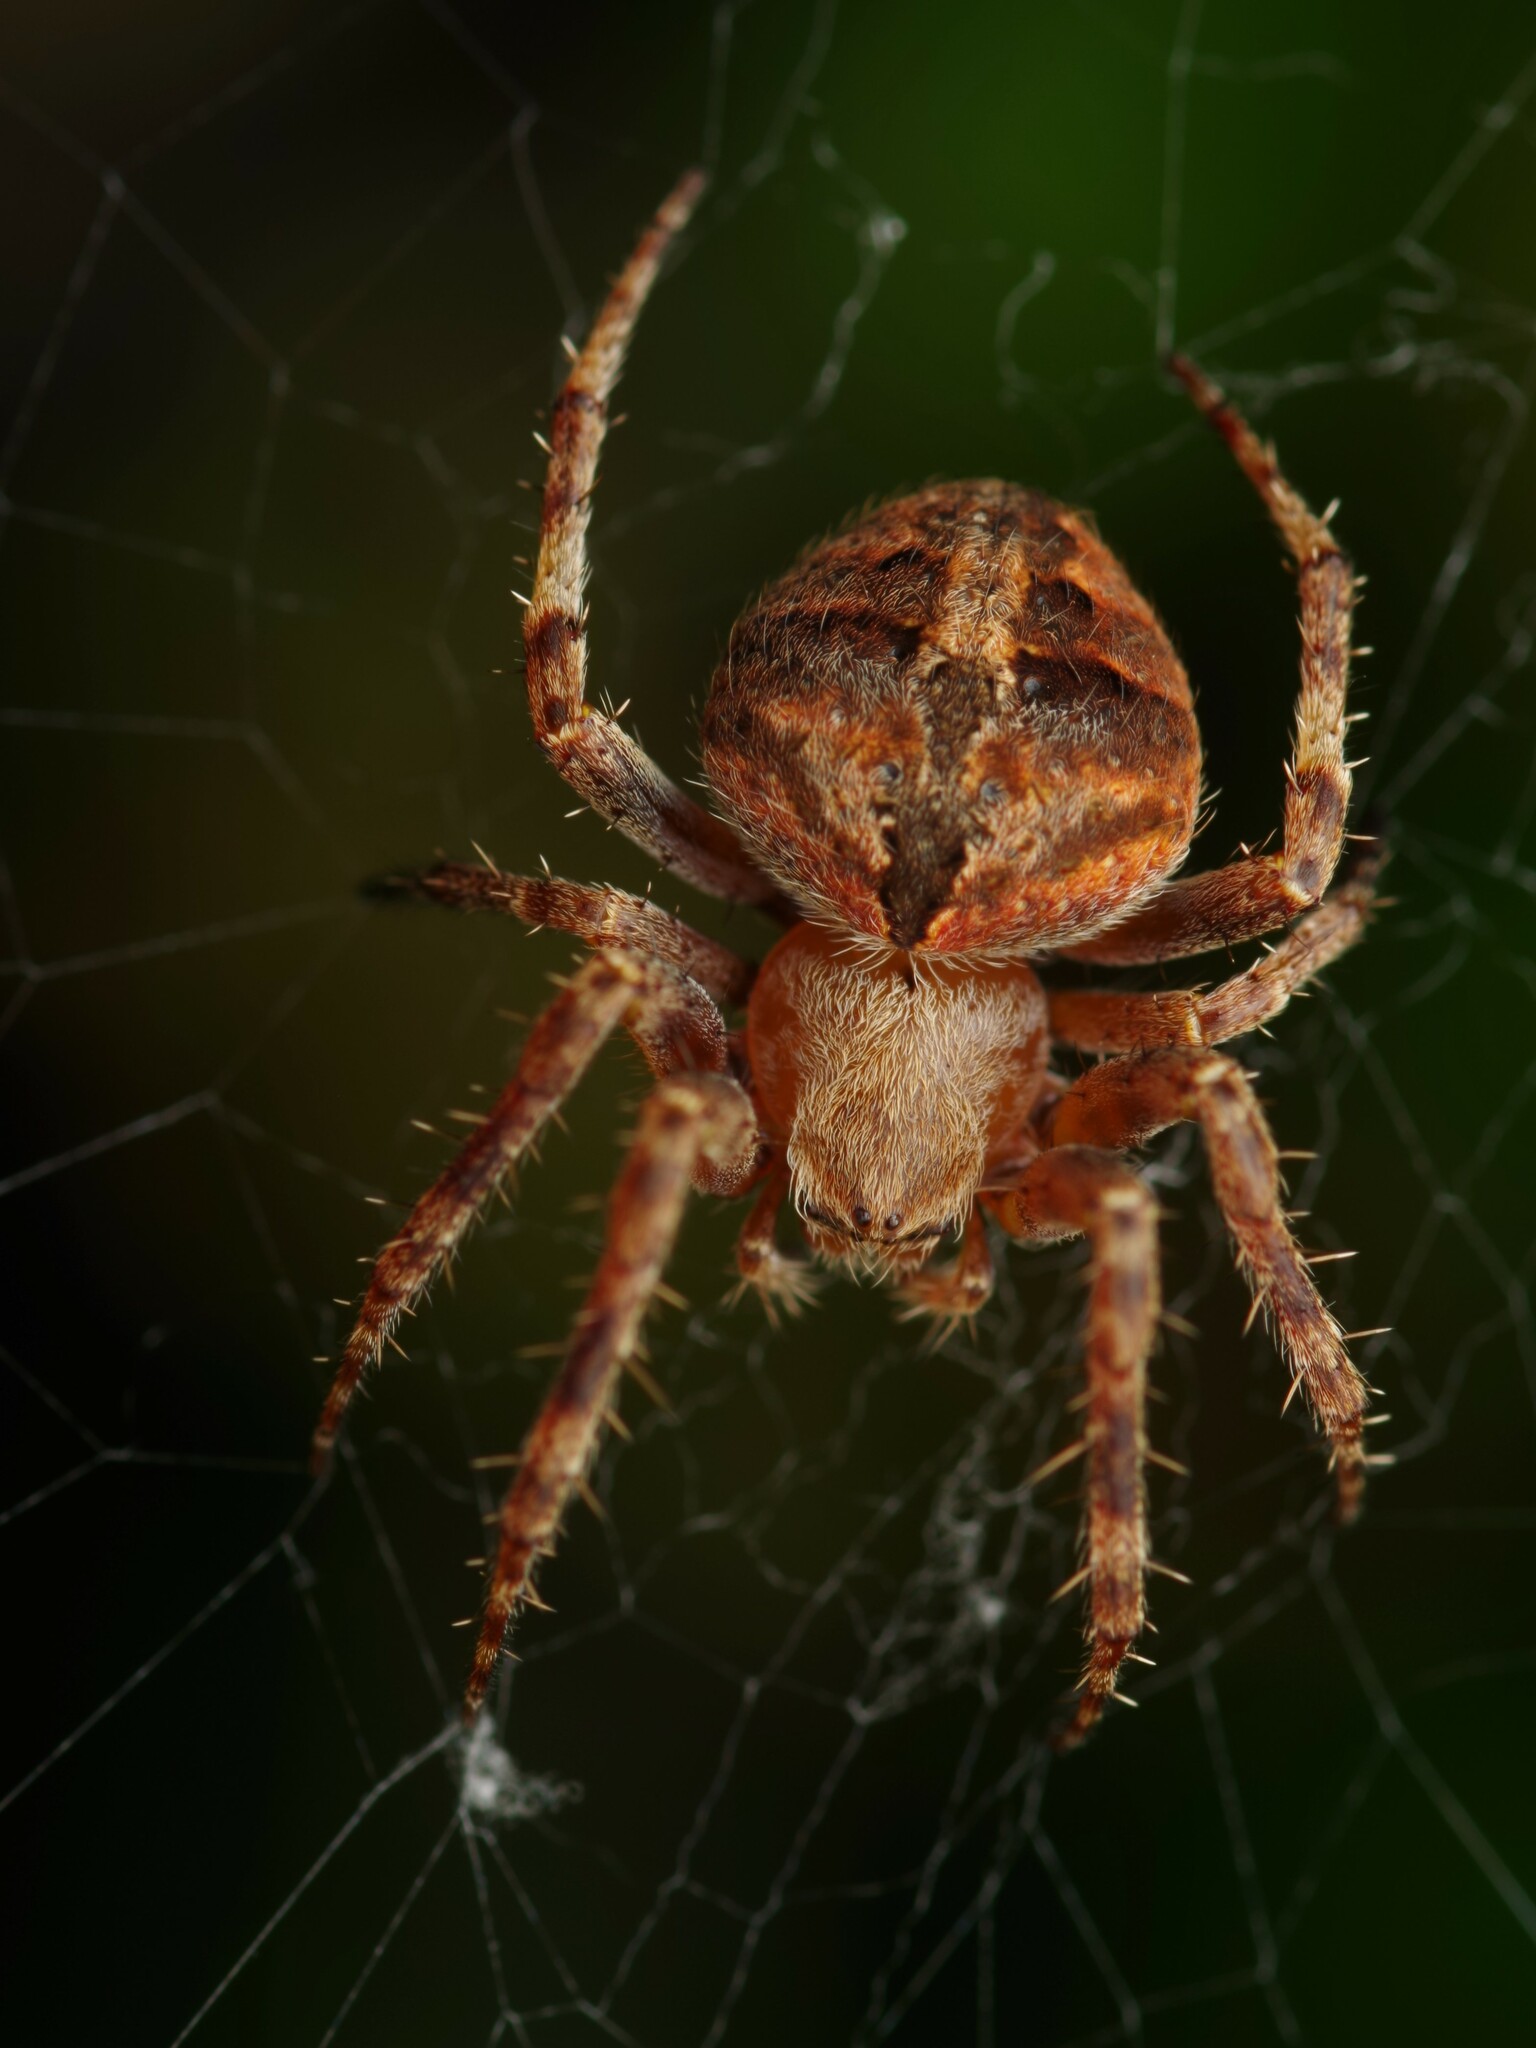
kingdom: Animalia
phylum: Arthropoda
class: Arachnida
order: Araneae
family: Araneidae
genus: Neoscona
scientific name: Neoscona subfusca
